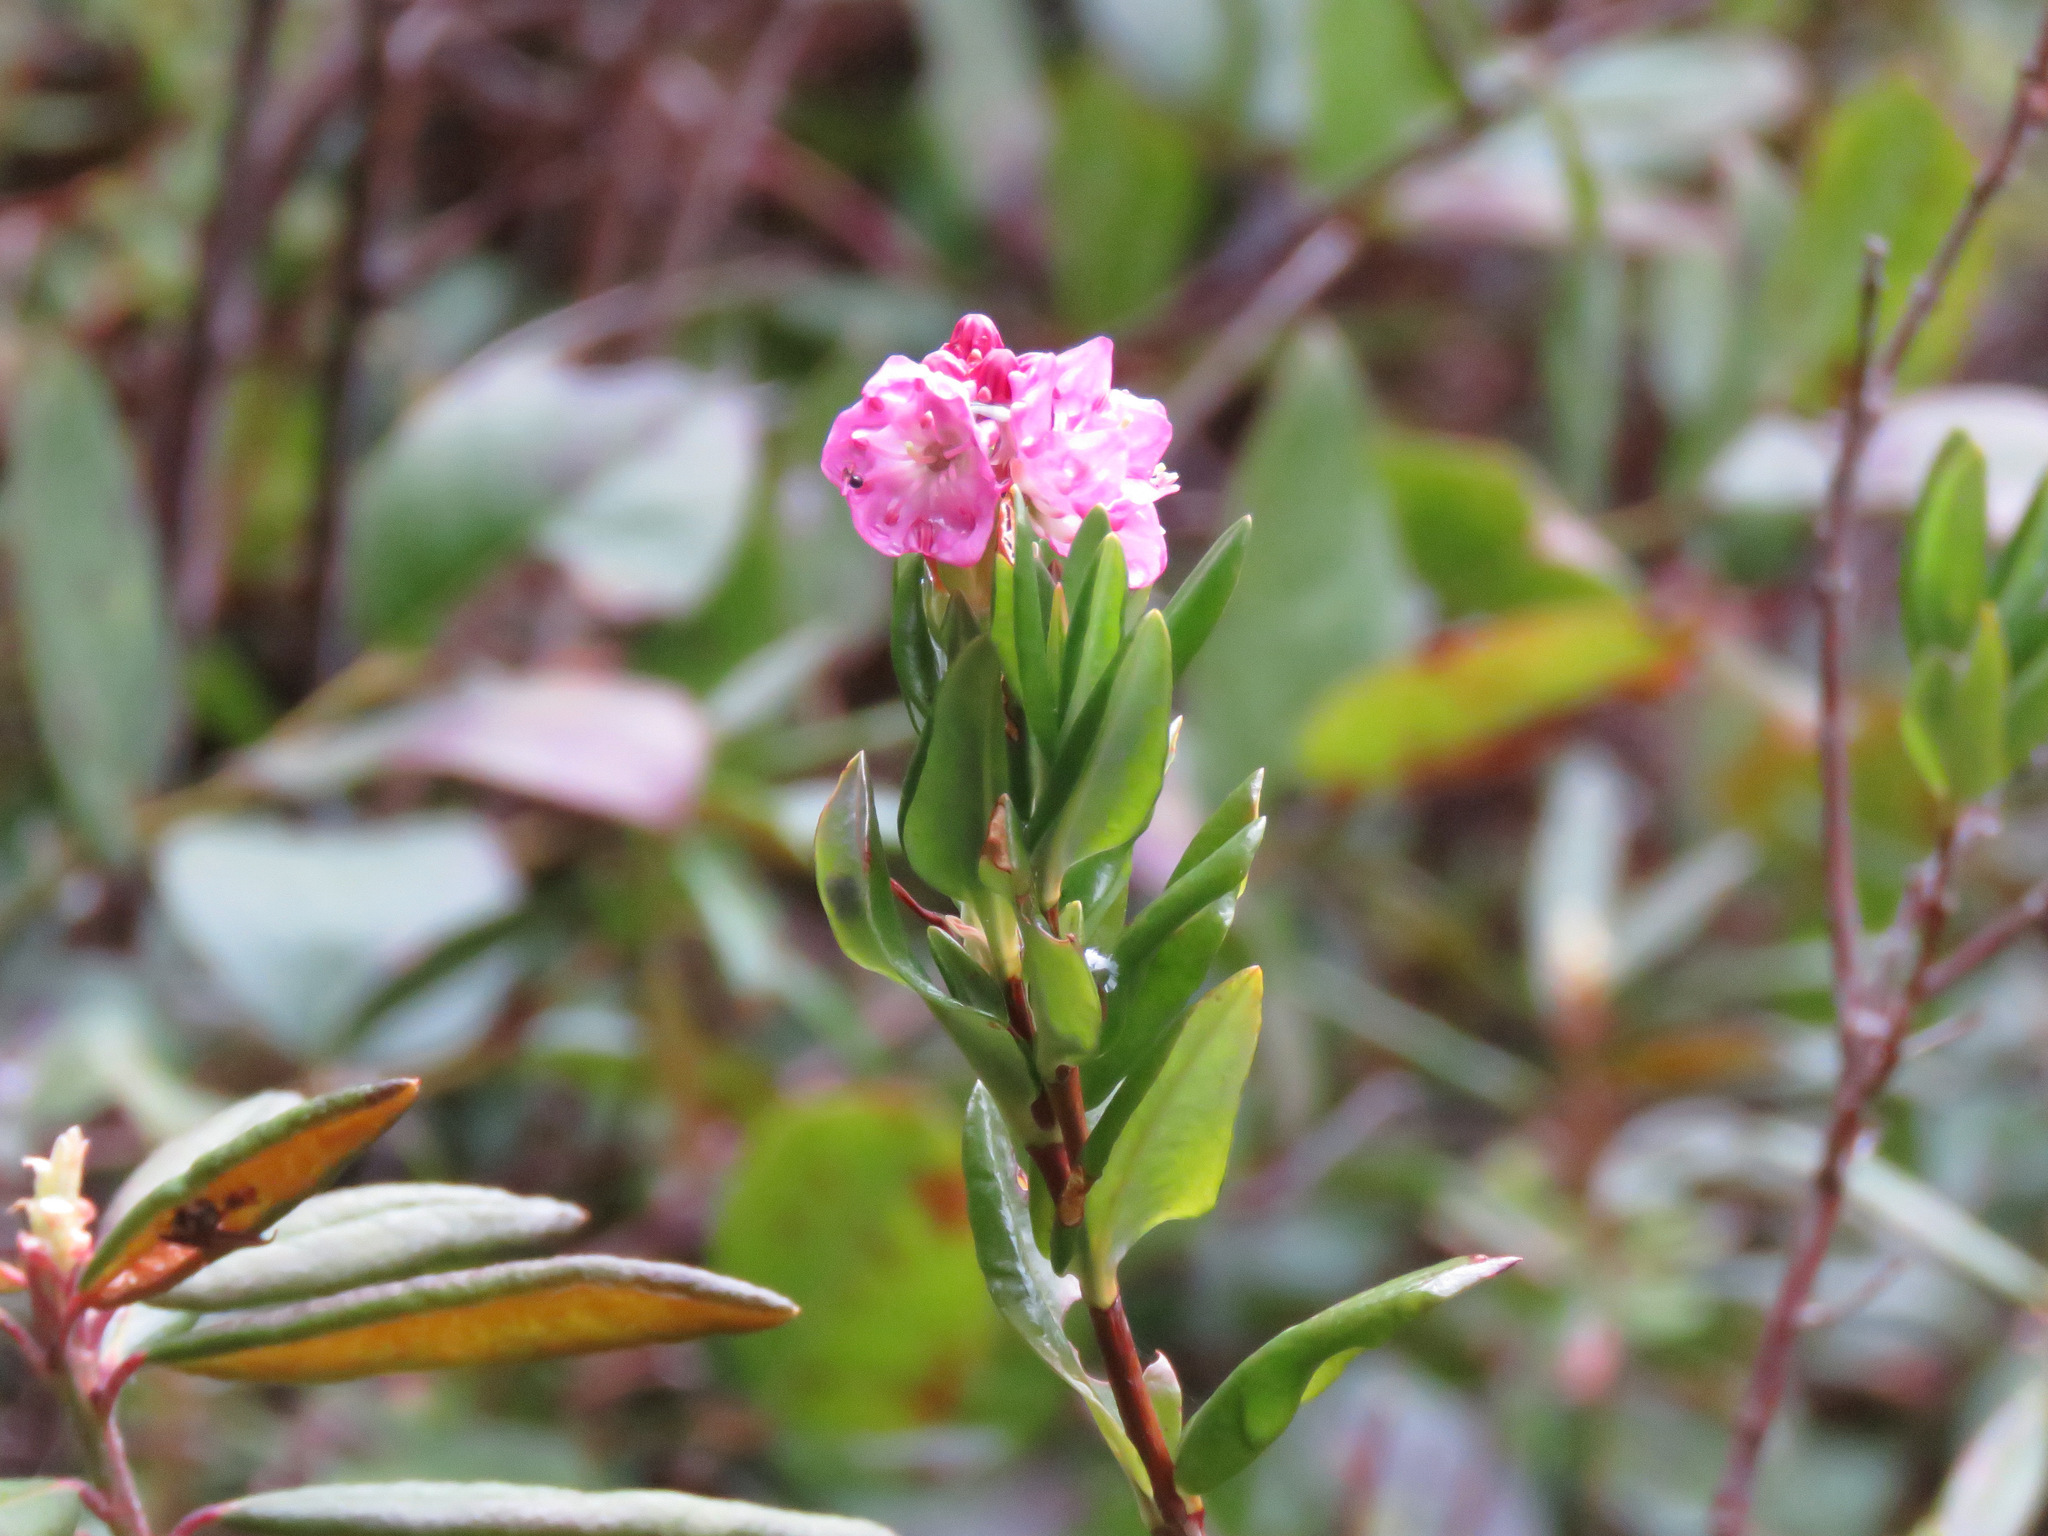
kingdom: Plantae
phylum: Tracheophyta
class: Magnoliopsida
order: Ericales
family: Ericaceae
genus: Kalmia
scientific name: Kalmia microphylla
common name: Alpine bog laurel
